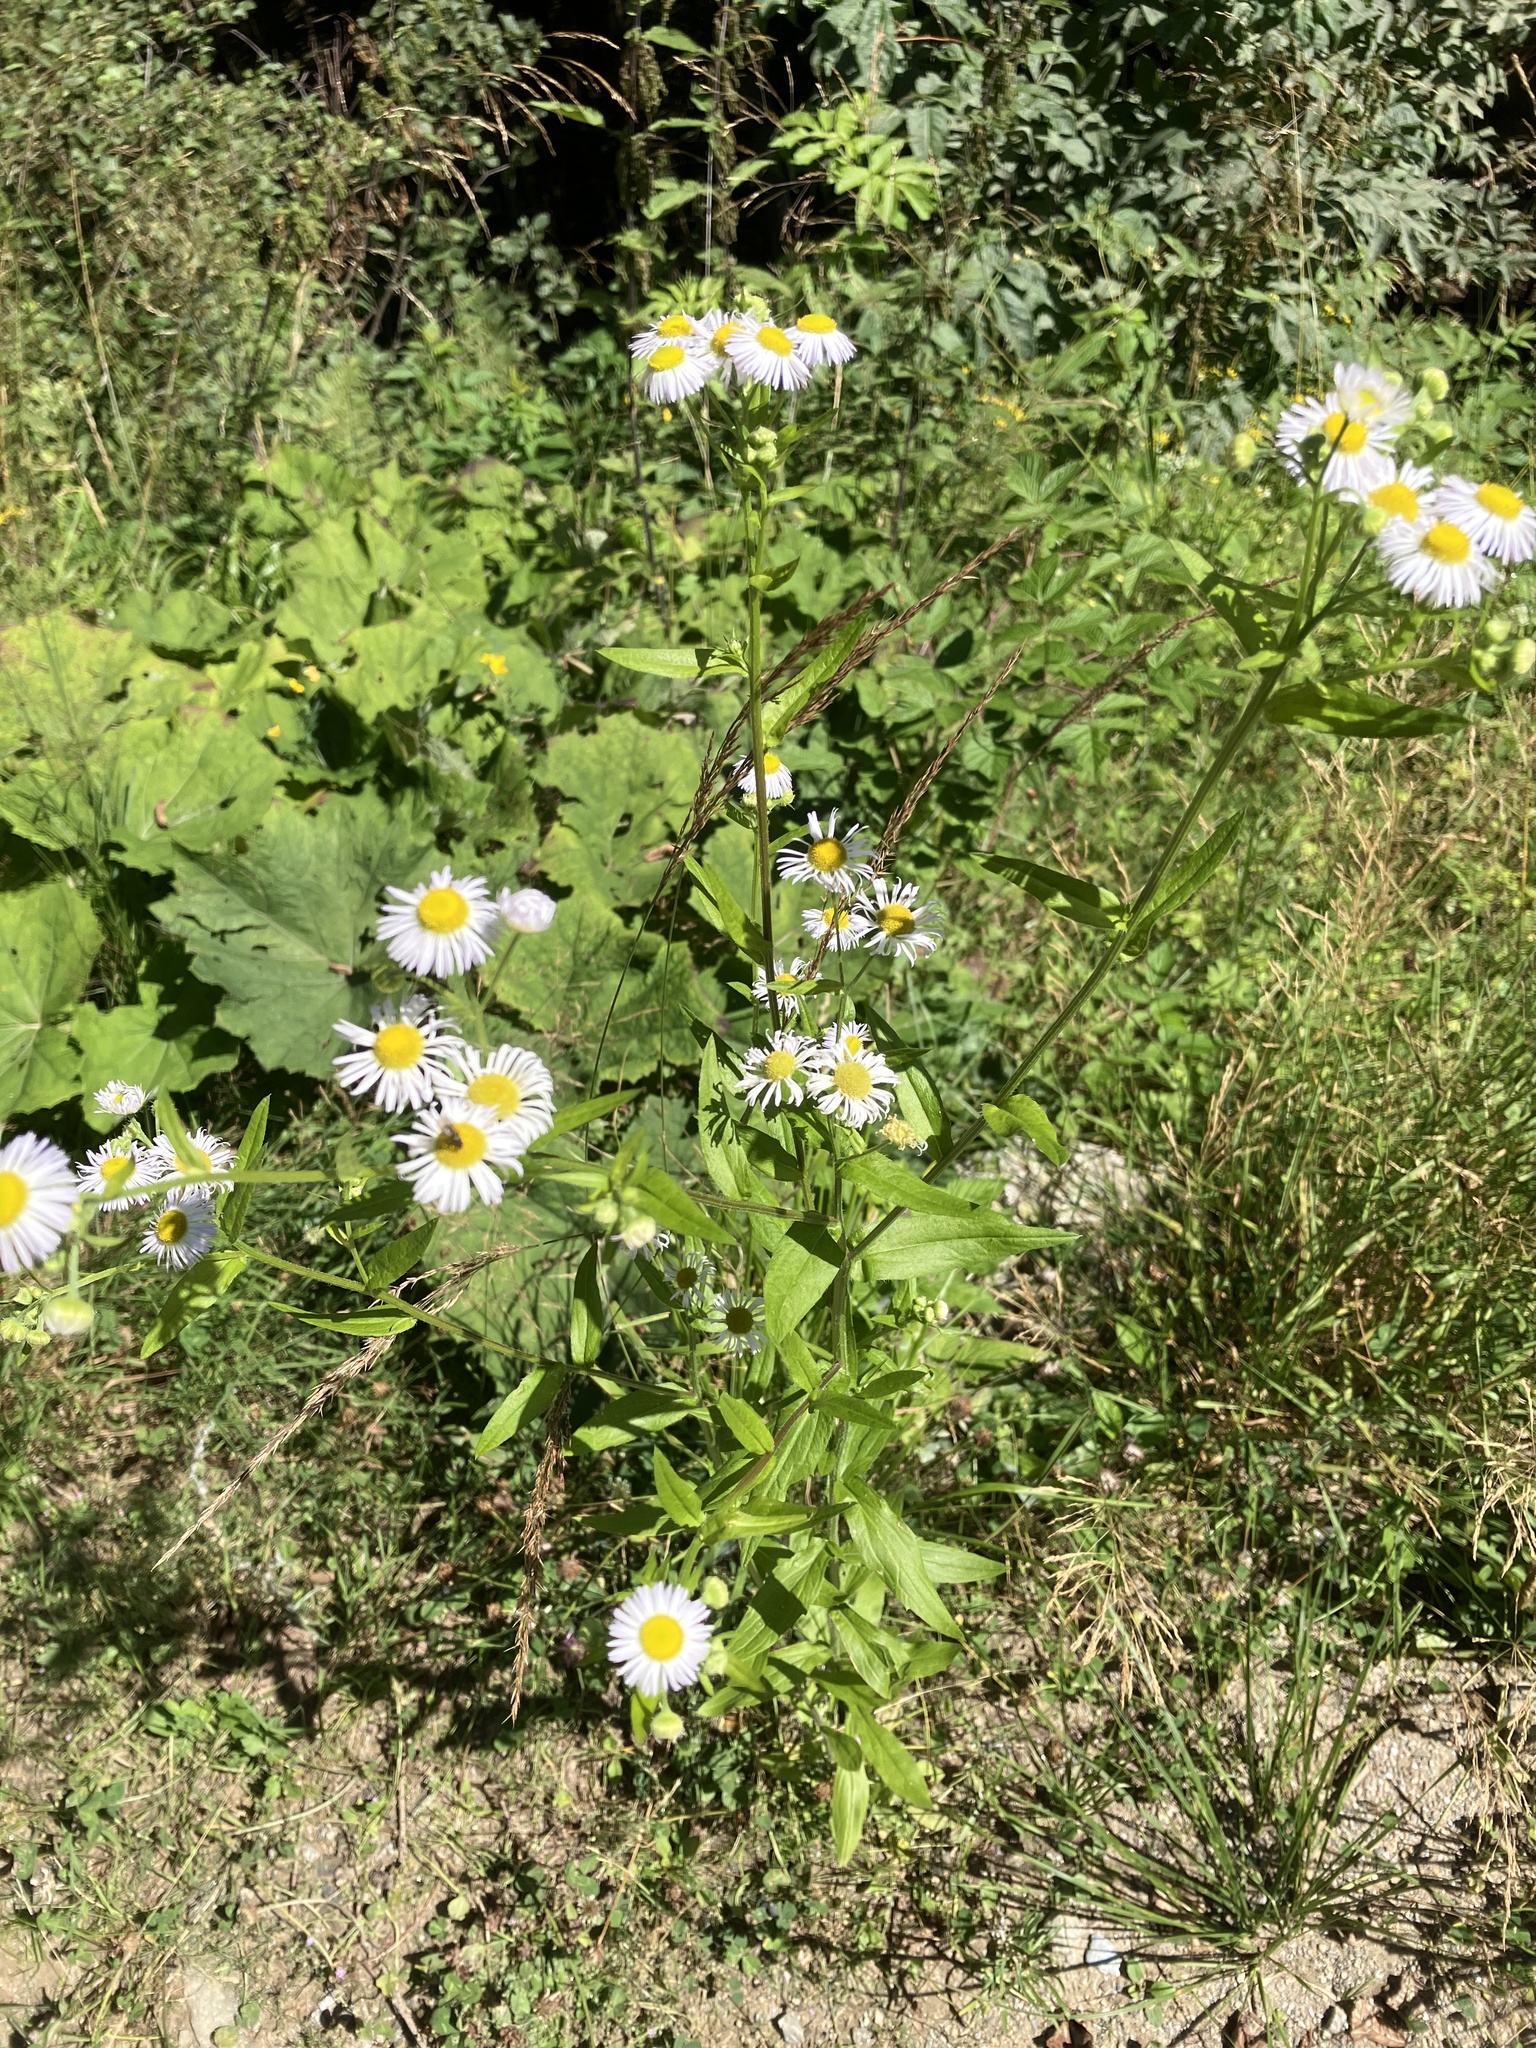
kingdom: Plantae
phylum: Tracheophyta
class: Magnoliopsida
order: Asterales
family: Asteraceae
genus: Erigeron
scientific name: Erigeron annuus
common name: Tall fleabane
